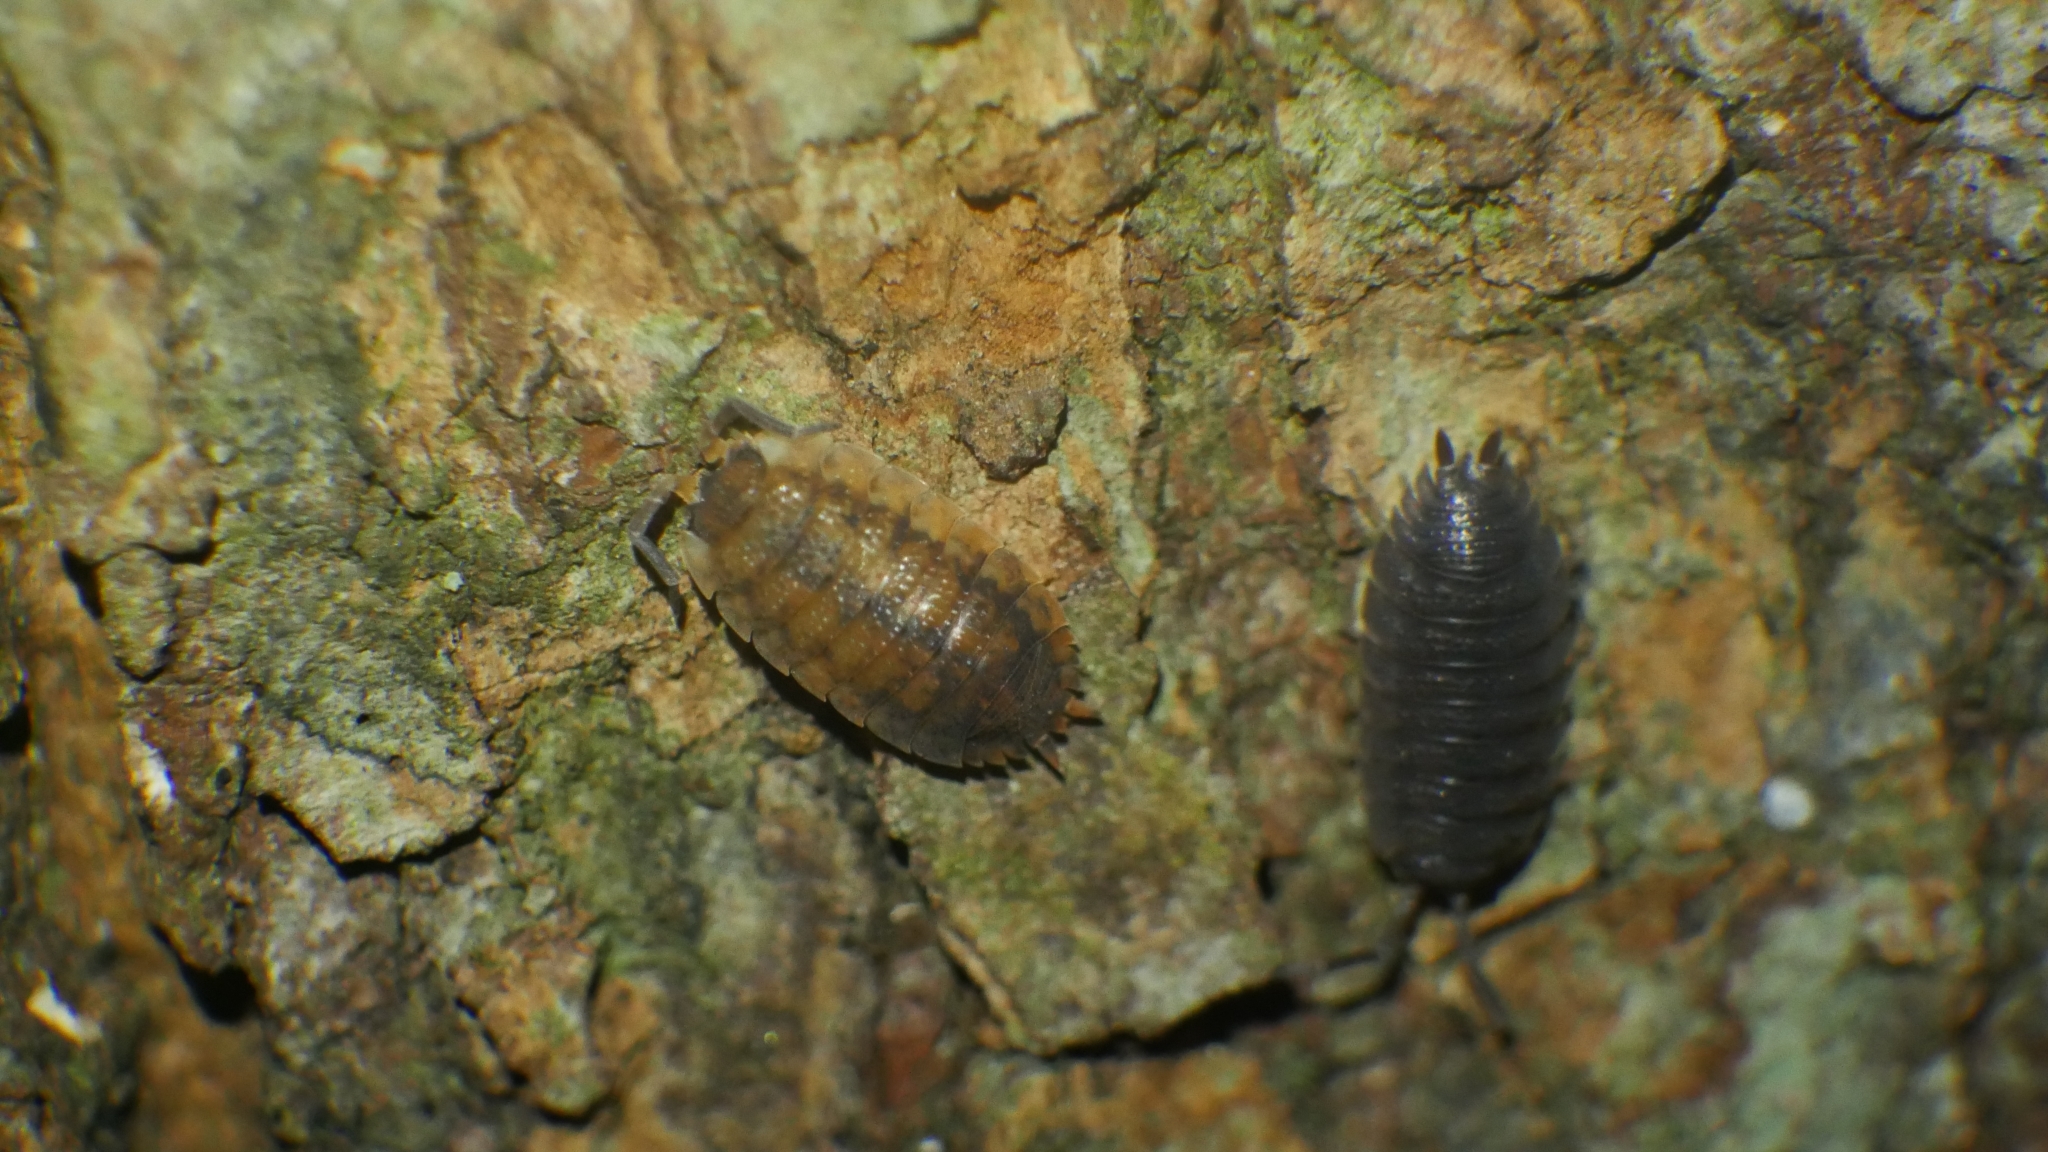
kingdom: Animalia
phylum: Arthropoda
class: Malacostraca
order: Isopoda
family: Porcellionidae
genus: Porcellio
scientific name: Porcellio scaber
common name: Common rough woodlouse
